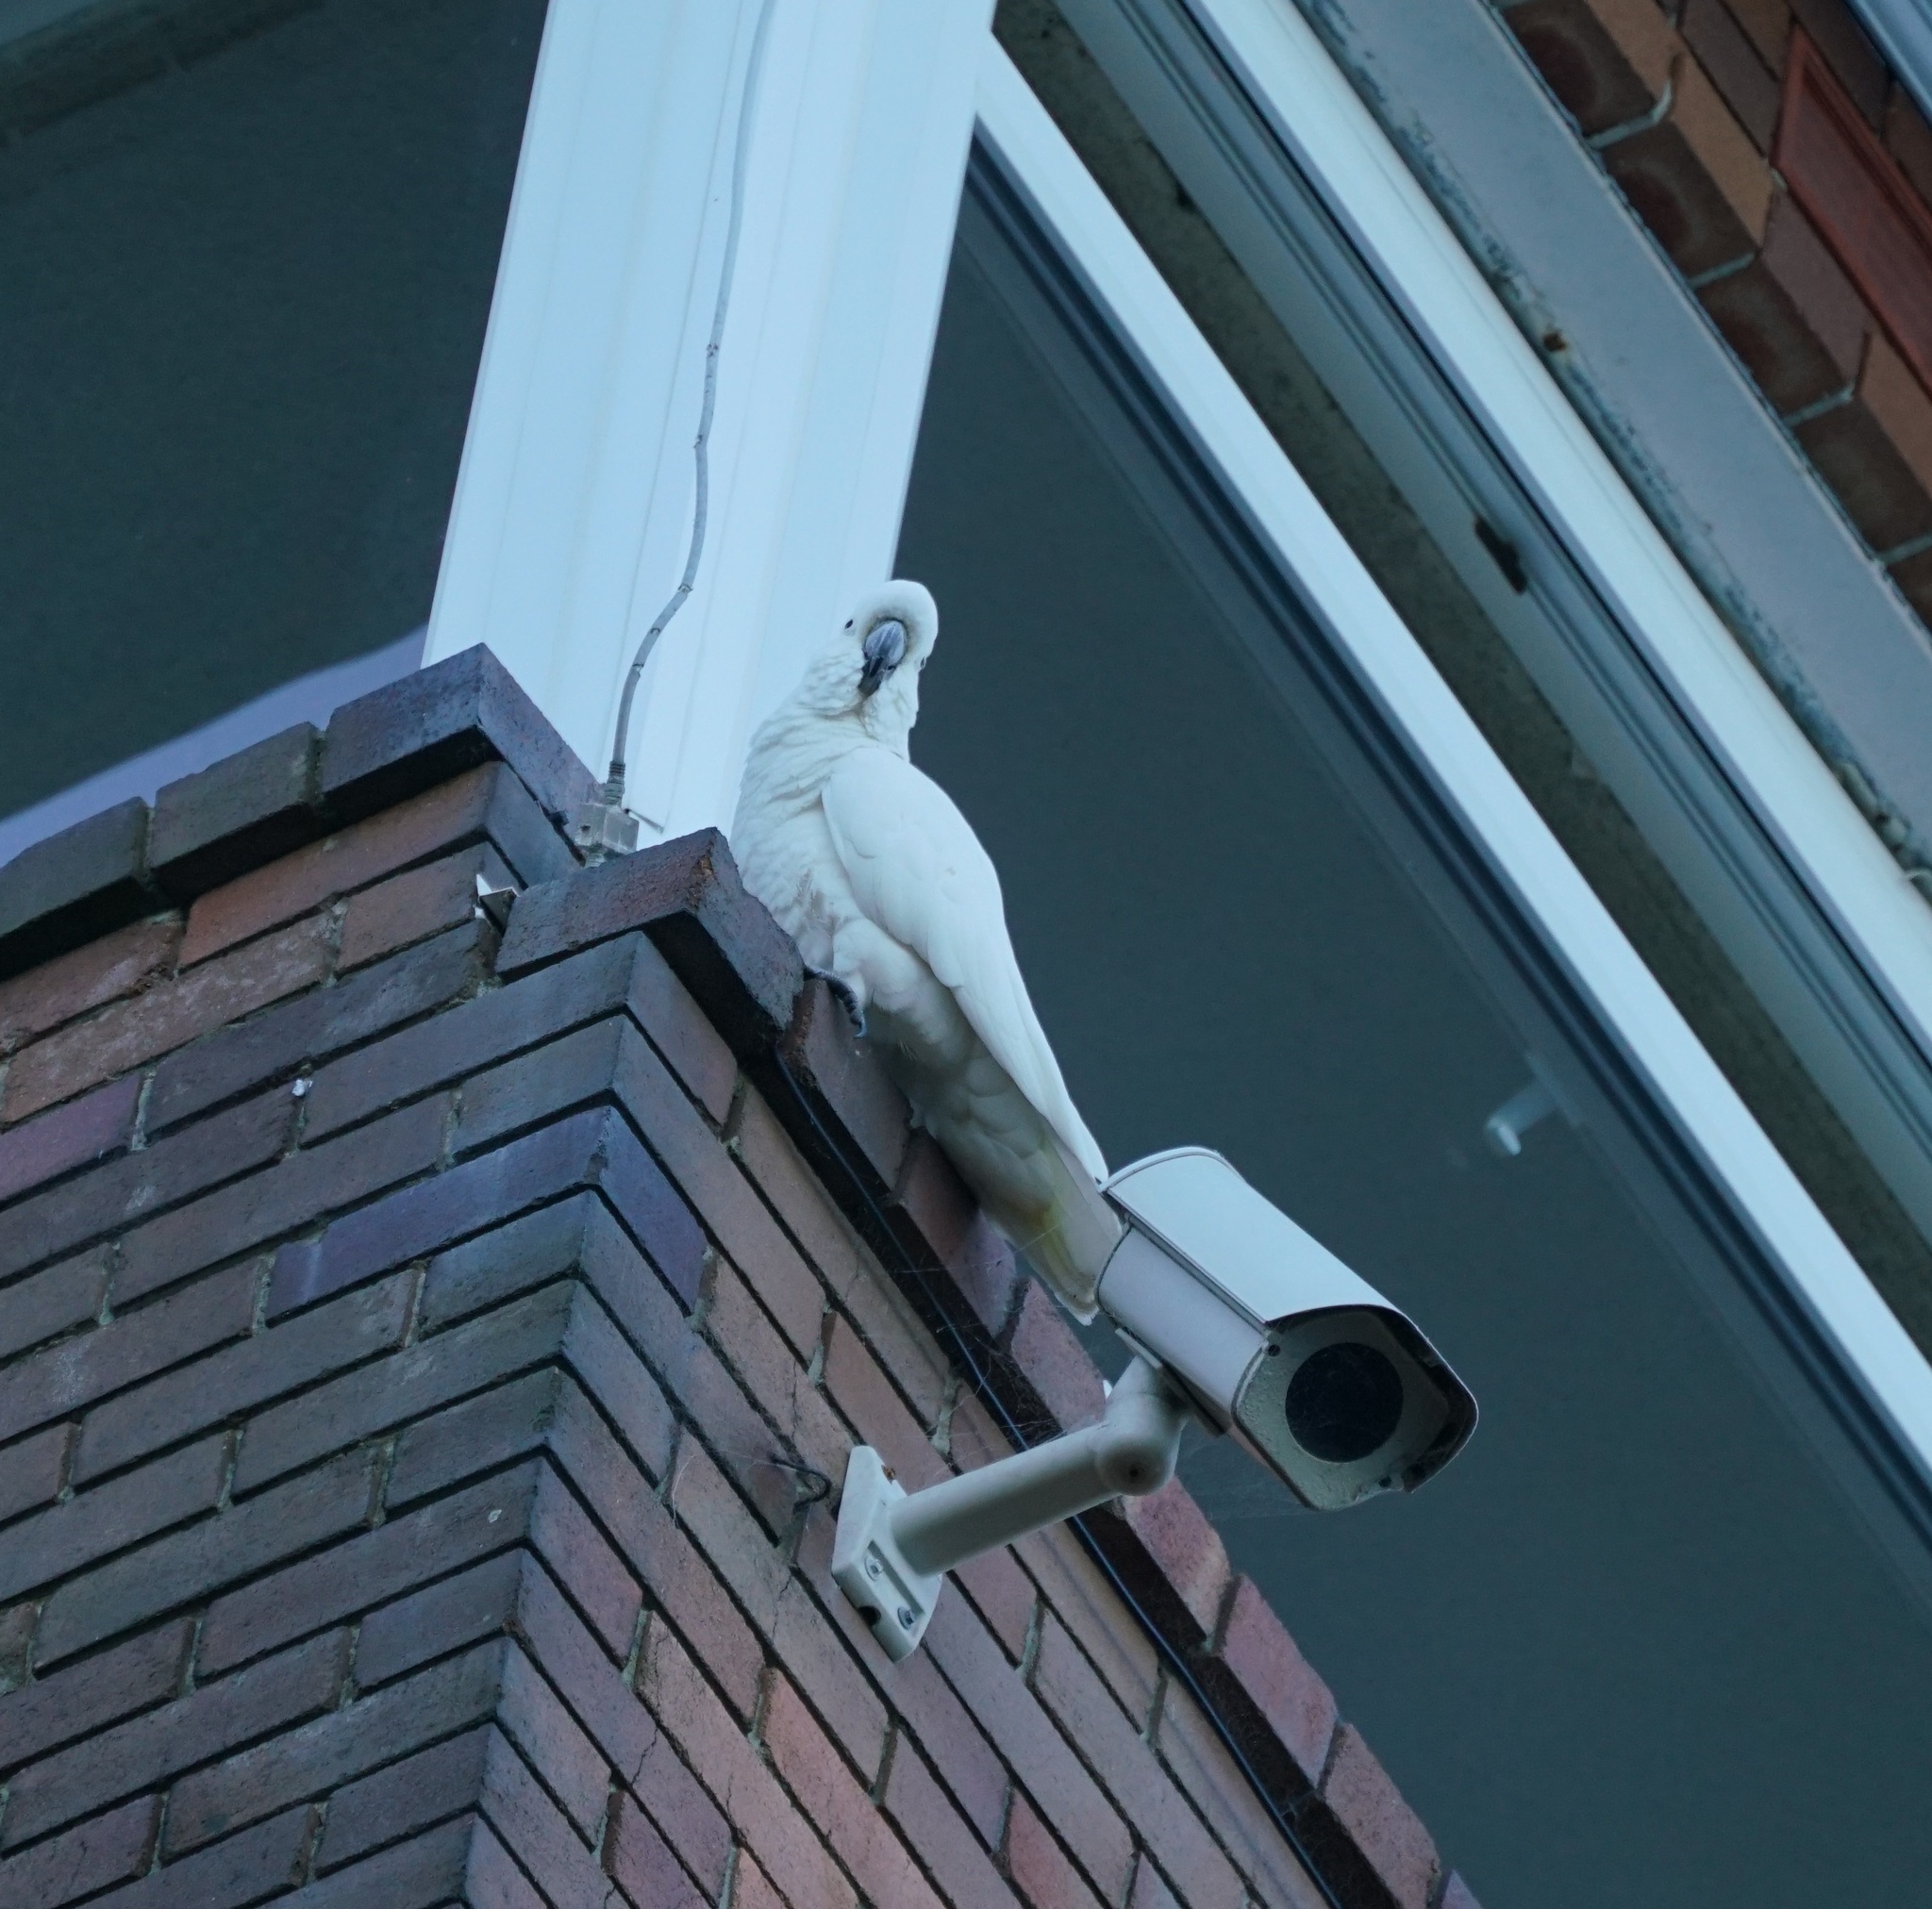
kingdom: Animalia
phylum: Chordata
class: Aves
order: Psittaciformes
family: Psittacidae
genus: Cacatua
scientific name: Cacatua galerita
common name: Sulphur-crested cockatoo
